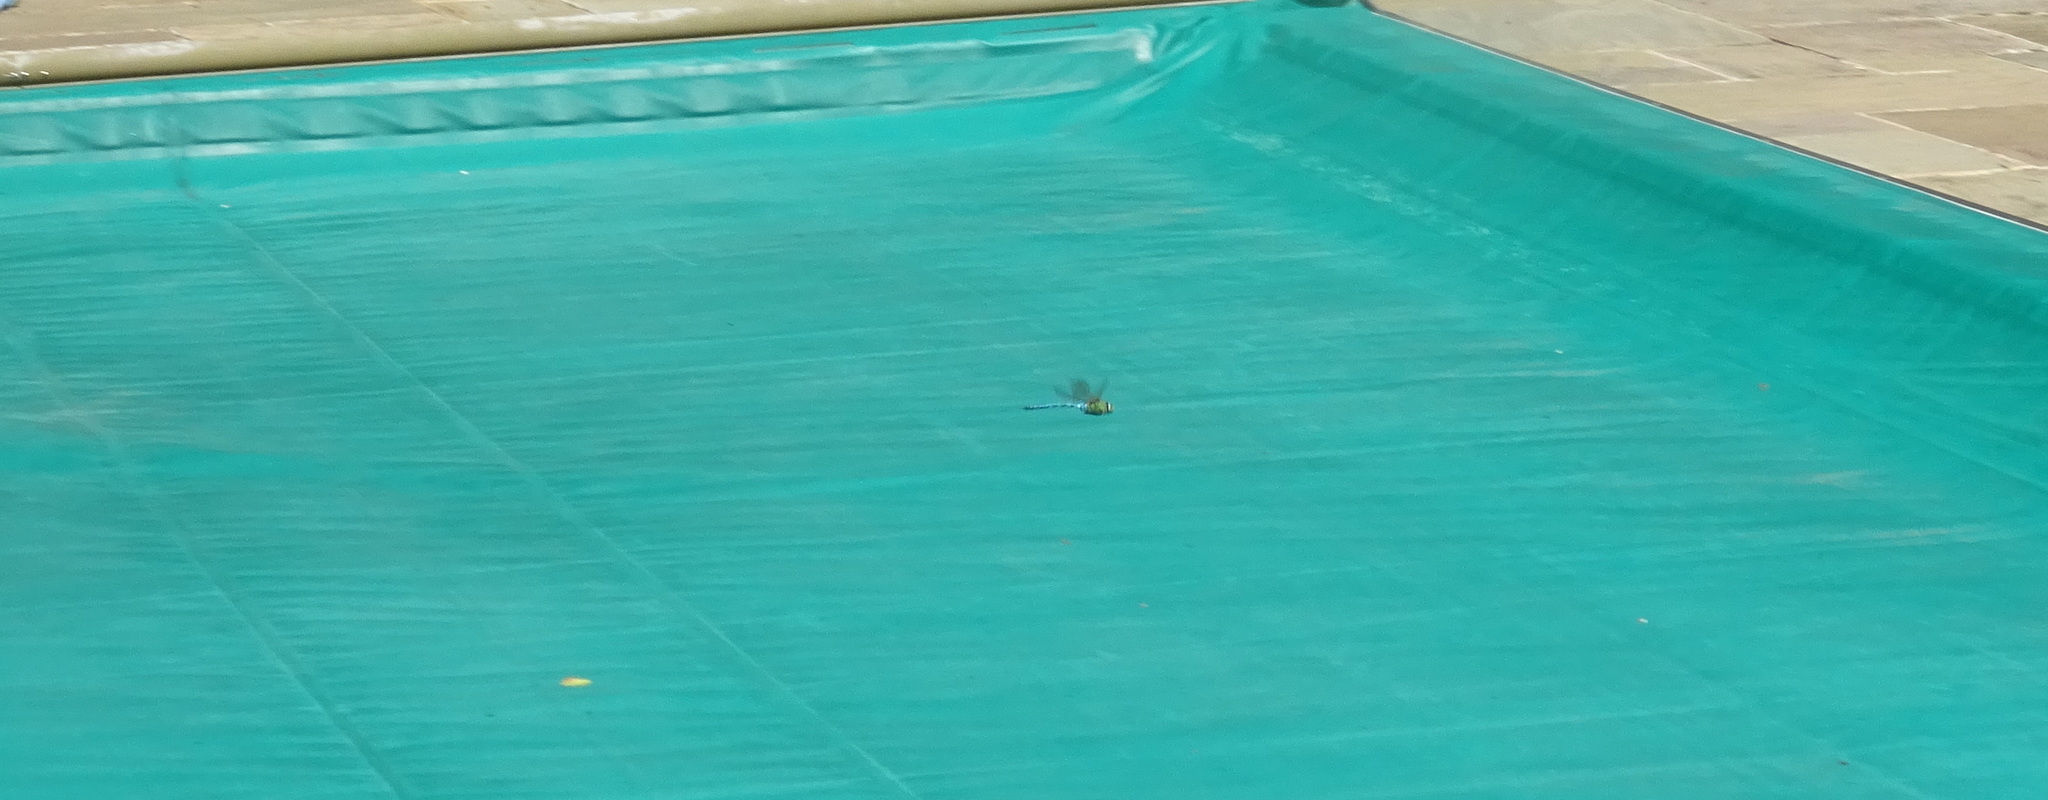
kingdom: Animalia
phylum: Arthropoda
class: Insecta
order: Odonata
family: Aeshnidae
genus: Anax
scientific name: Anax imperator
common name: Emperor dragonfly
